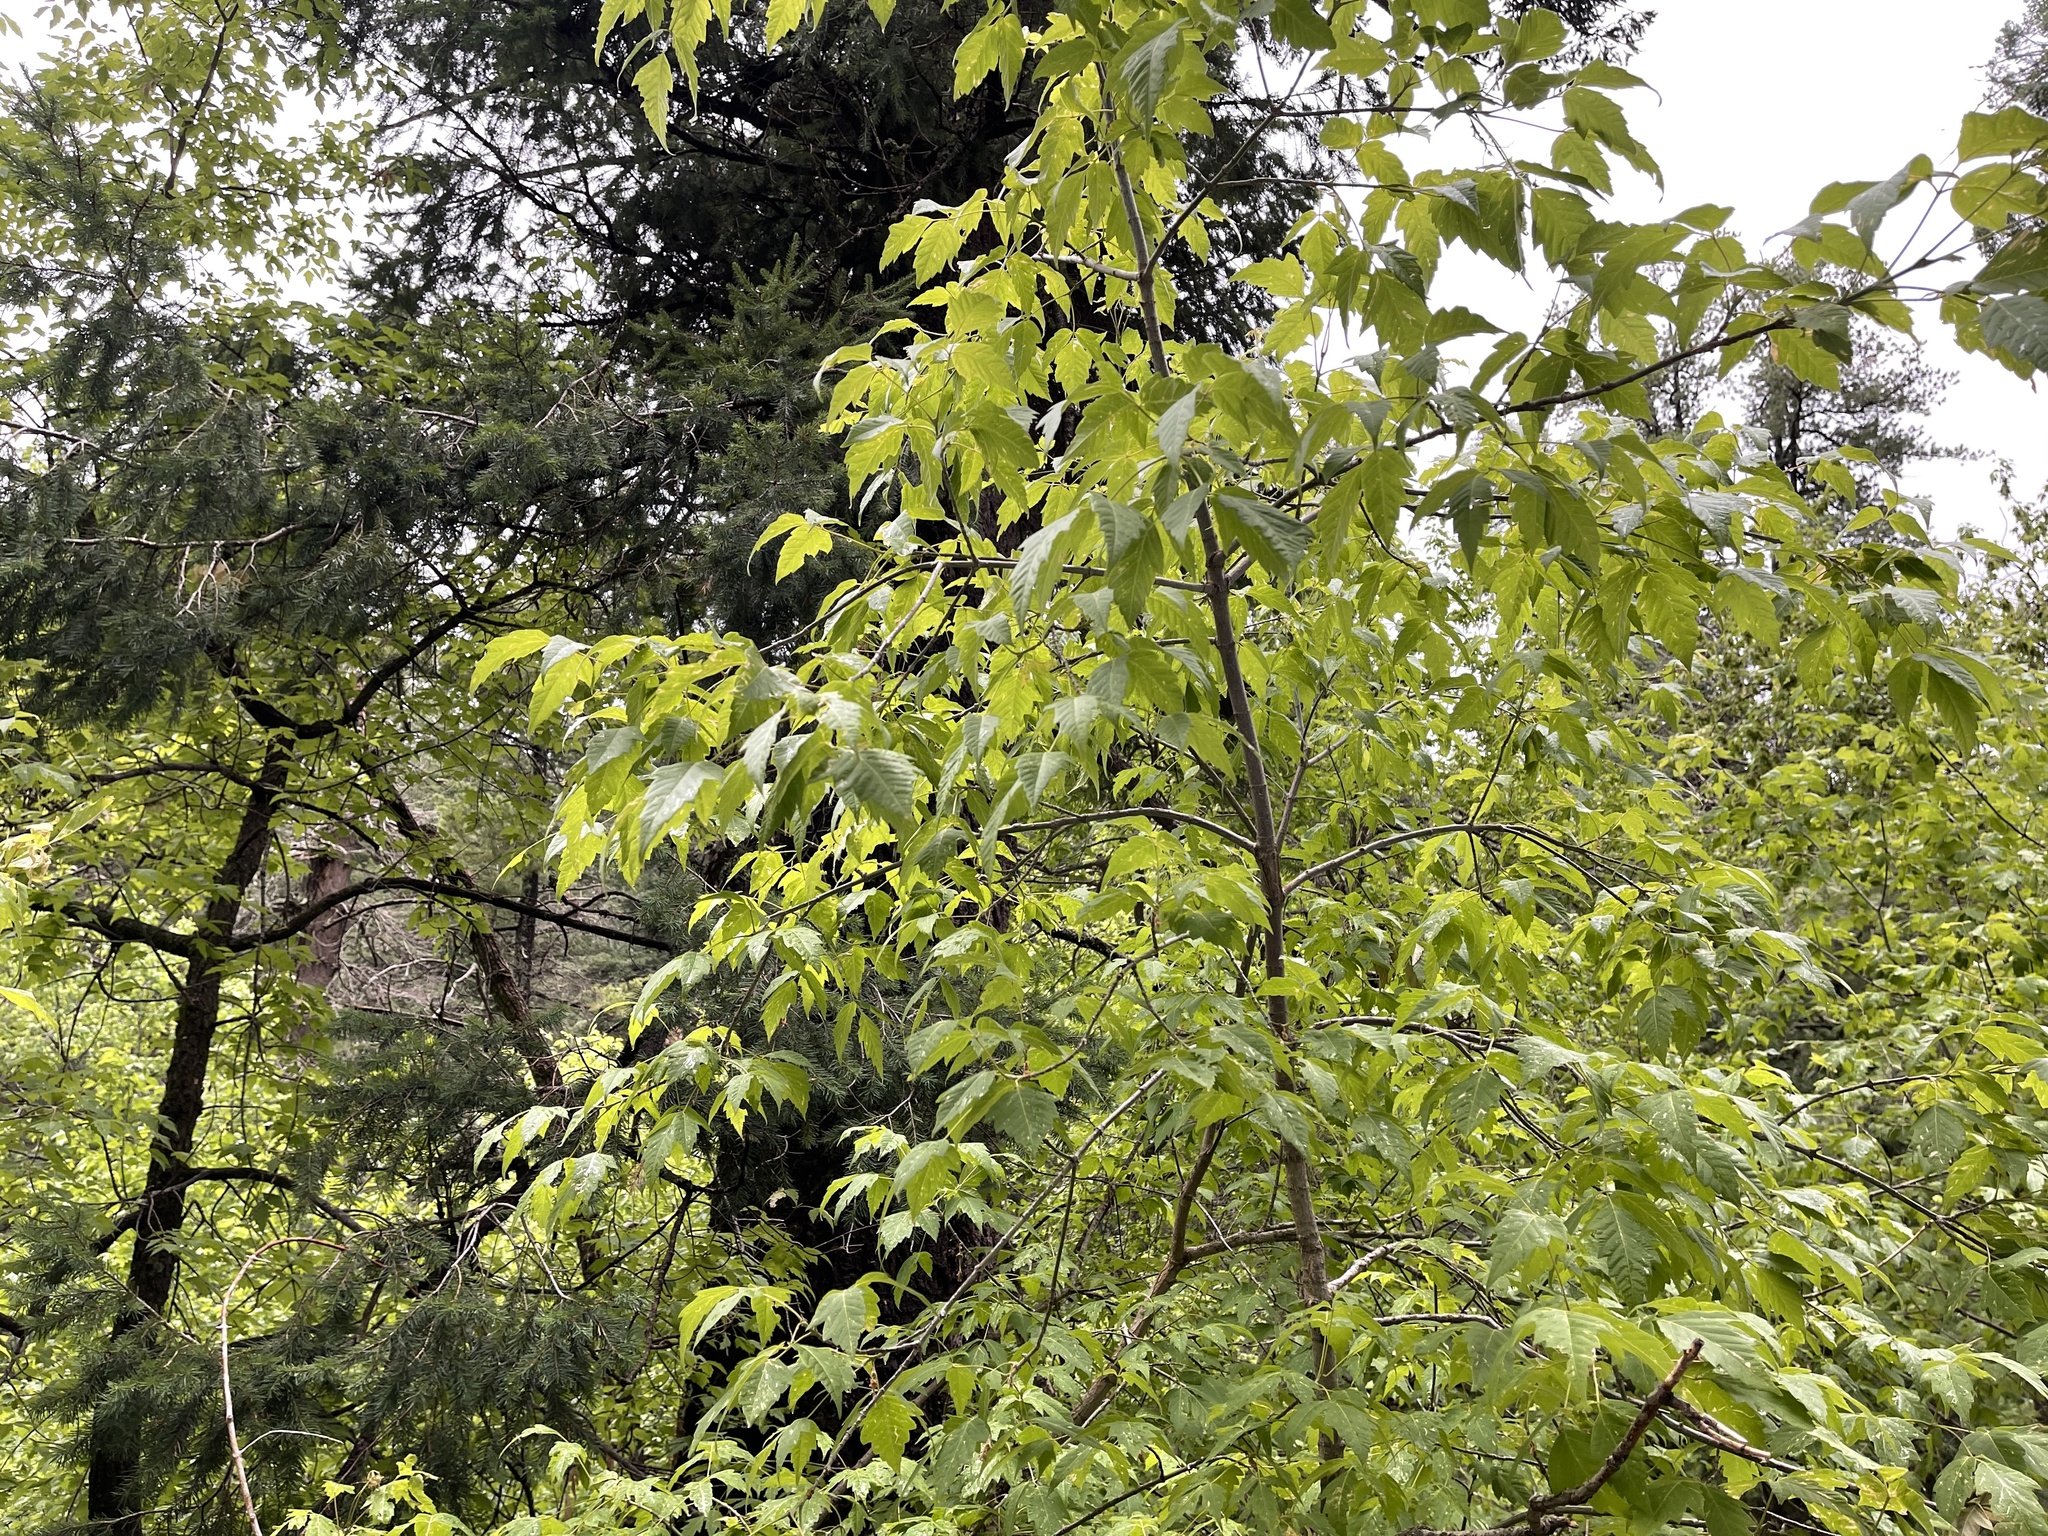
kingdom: Plantae
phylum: Tracheophyta
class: Magnoliopsida
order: Sapindales
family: Sapindaceae
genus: Acer
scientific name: Acer negundo
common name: Ashleaf maple
